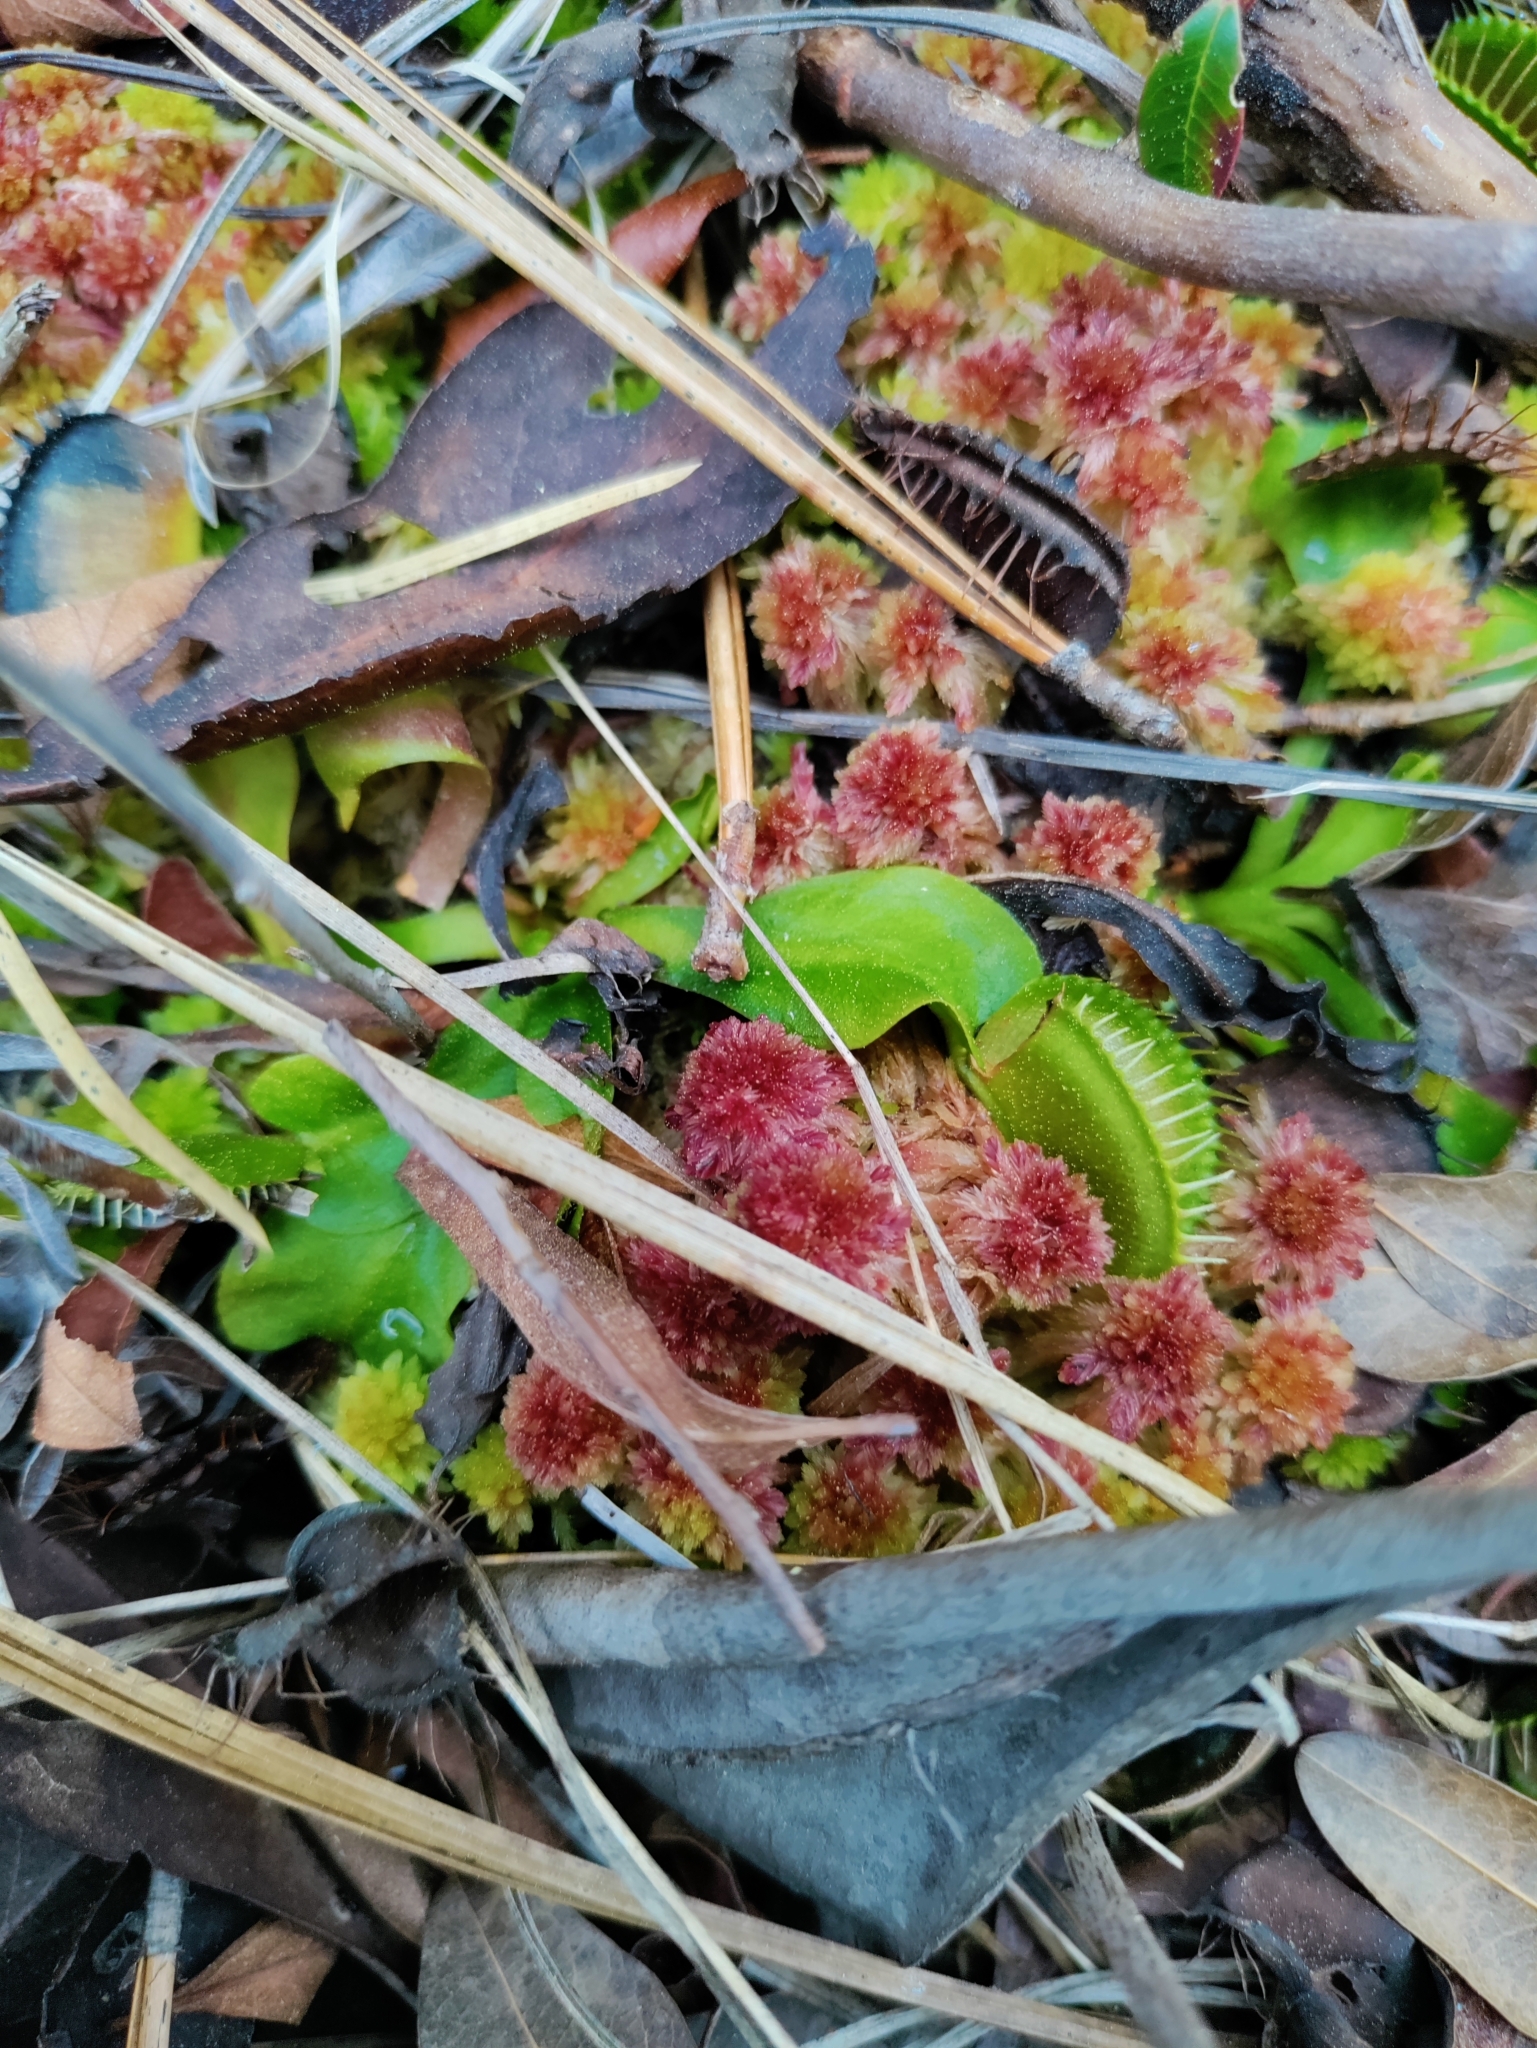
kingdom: Plantae
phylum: Tracheophyta
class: Magnoliopsida
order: Caryophyllales
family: Droseraceae
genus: Dionaea
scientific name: Dionaea muscipula
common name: Venus flytrap
